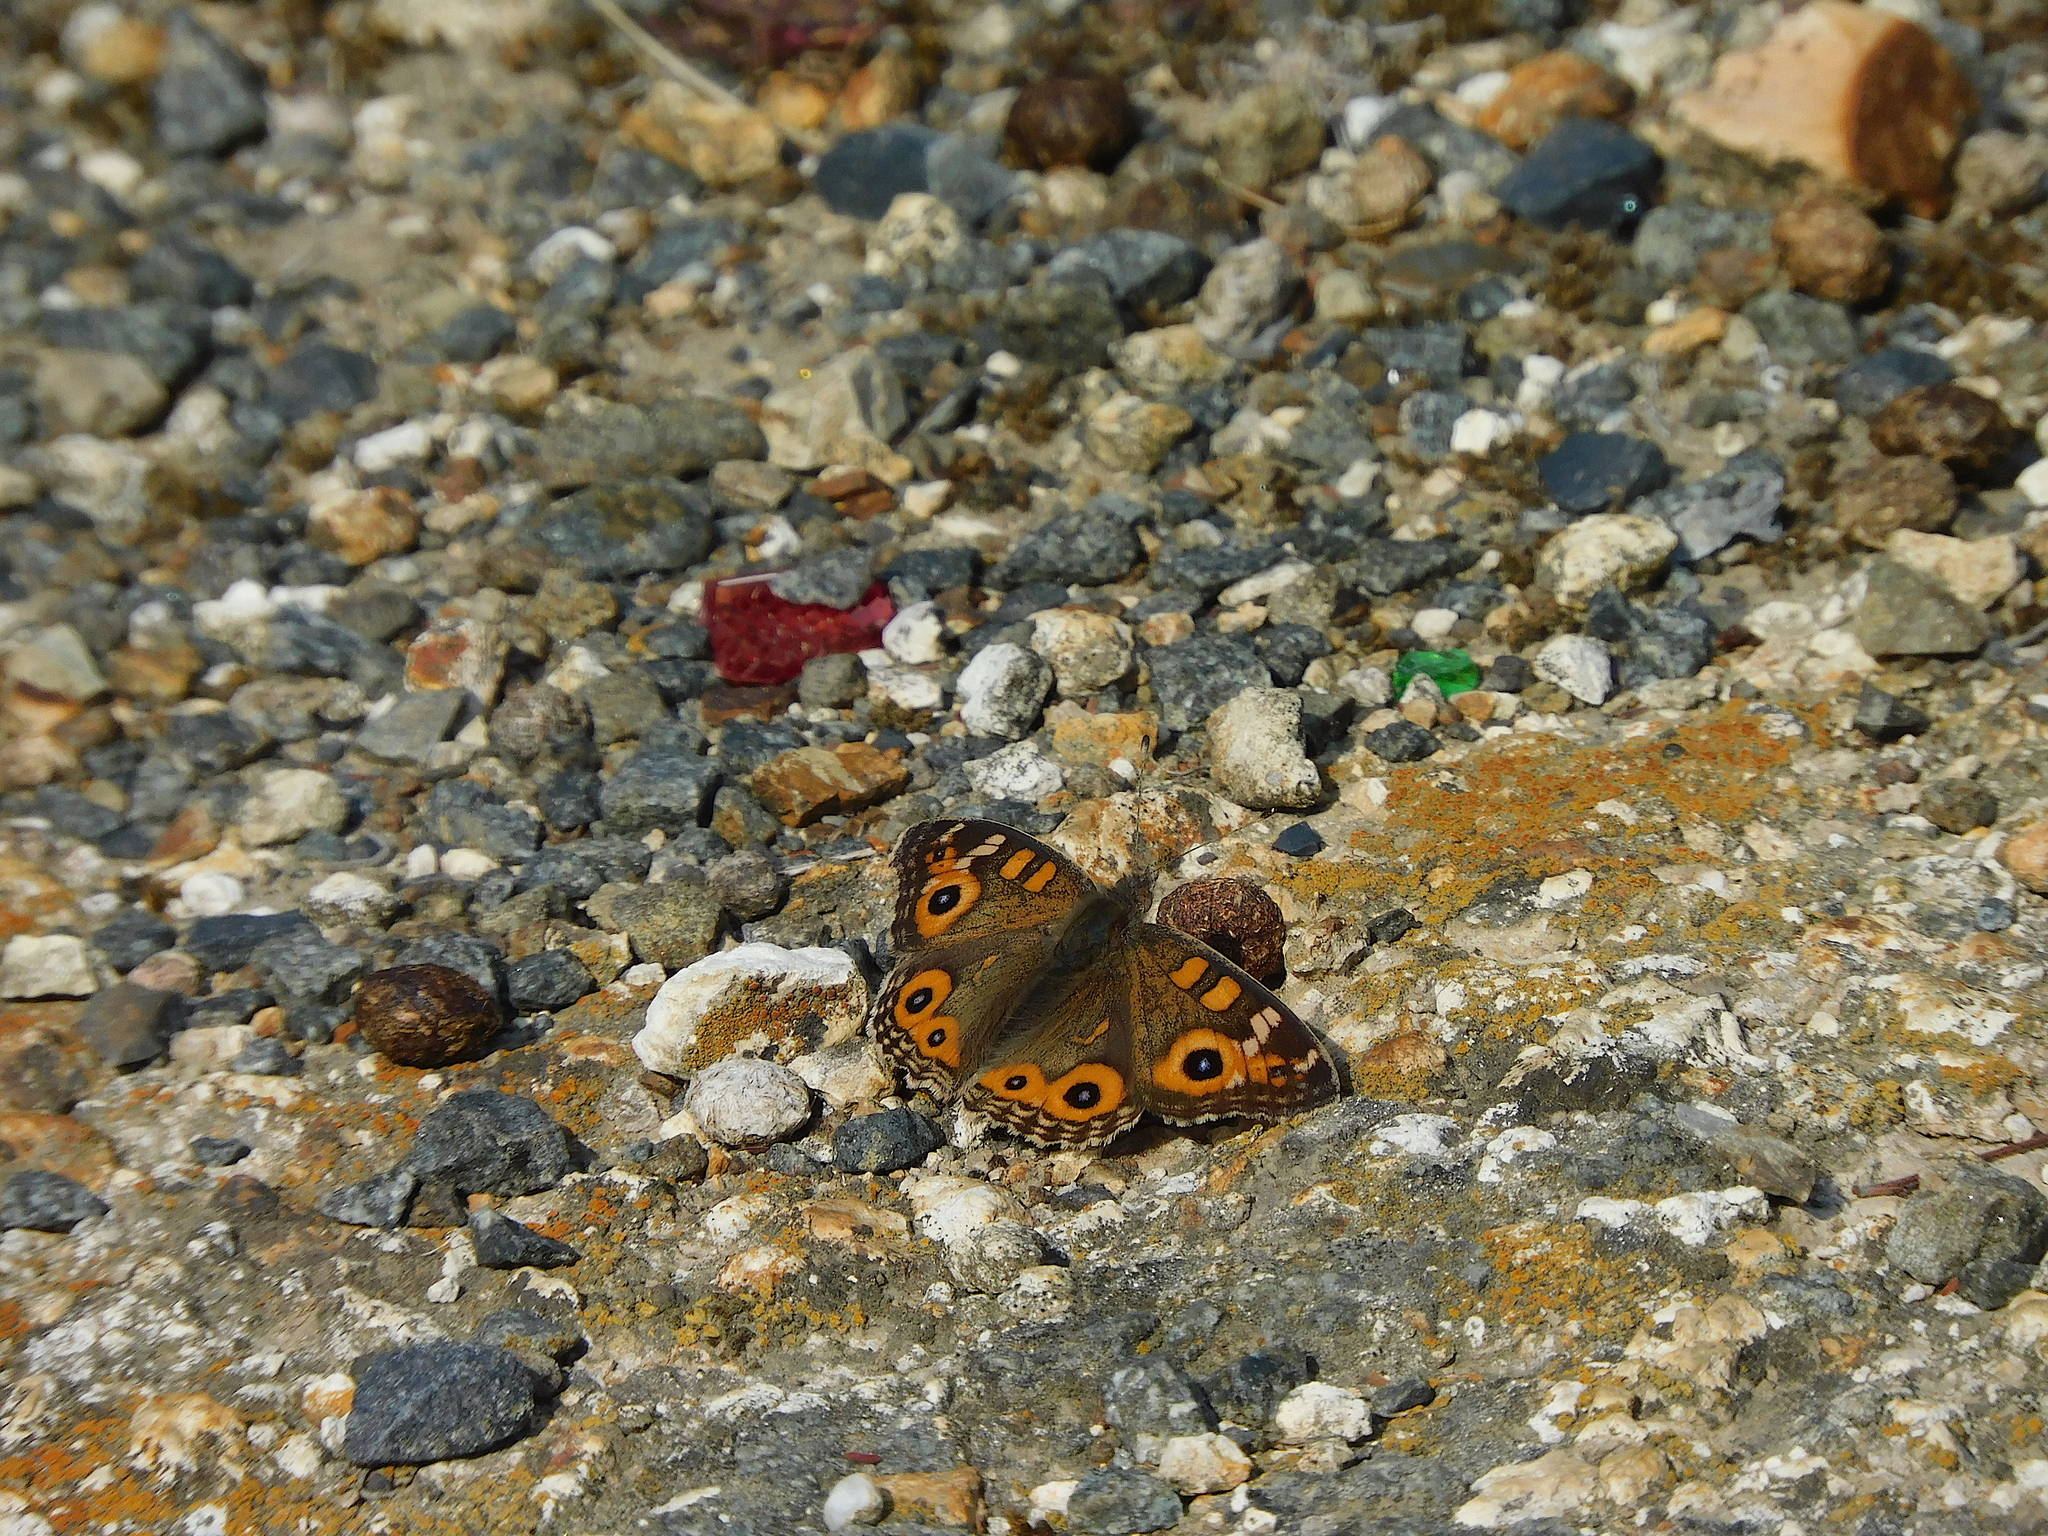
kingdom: Animalia
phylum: Arthropoda
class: Insecta
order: Lepidoptera
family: Nymphalidae
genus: Junonia
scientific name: Junonia villida
